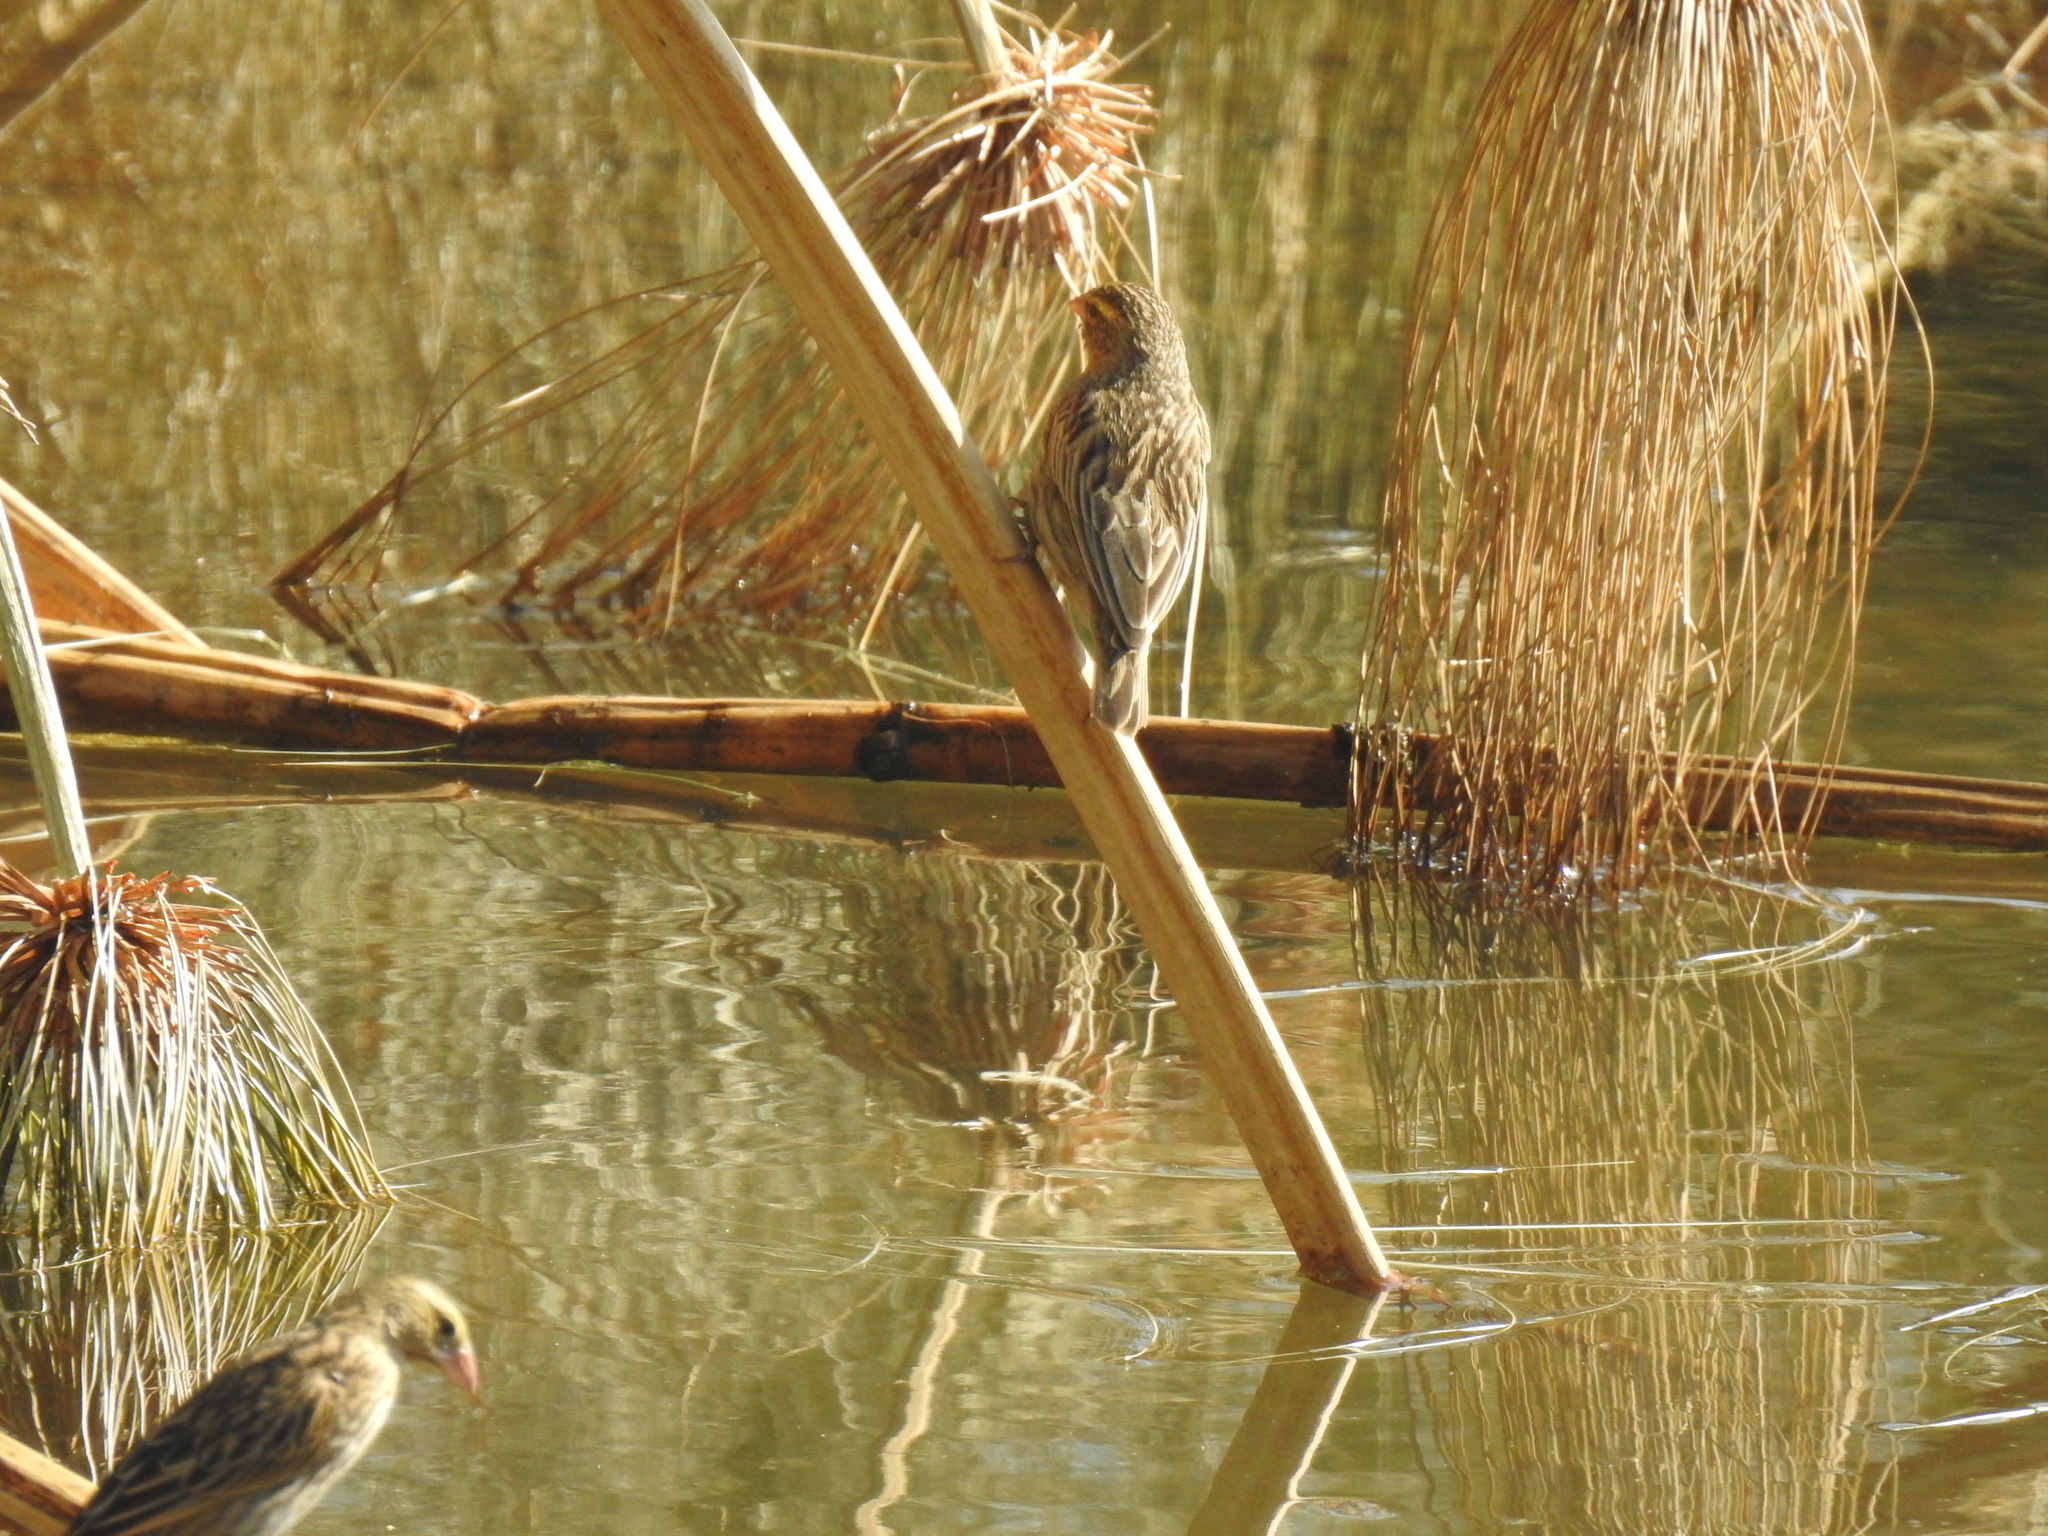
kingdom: Animalia
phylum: Chordata
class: Aves
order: Passeriformes
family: Ploceidae
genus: Euplectes
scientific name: Euplectes orix
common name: Southern red bishop
